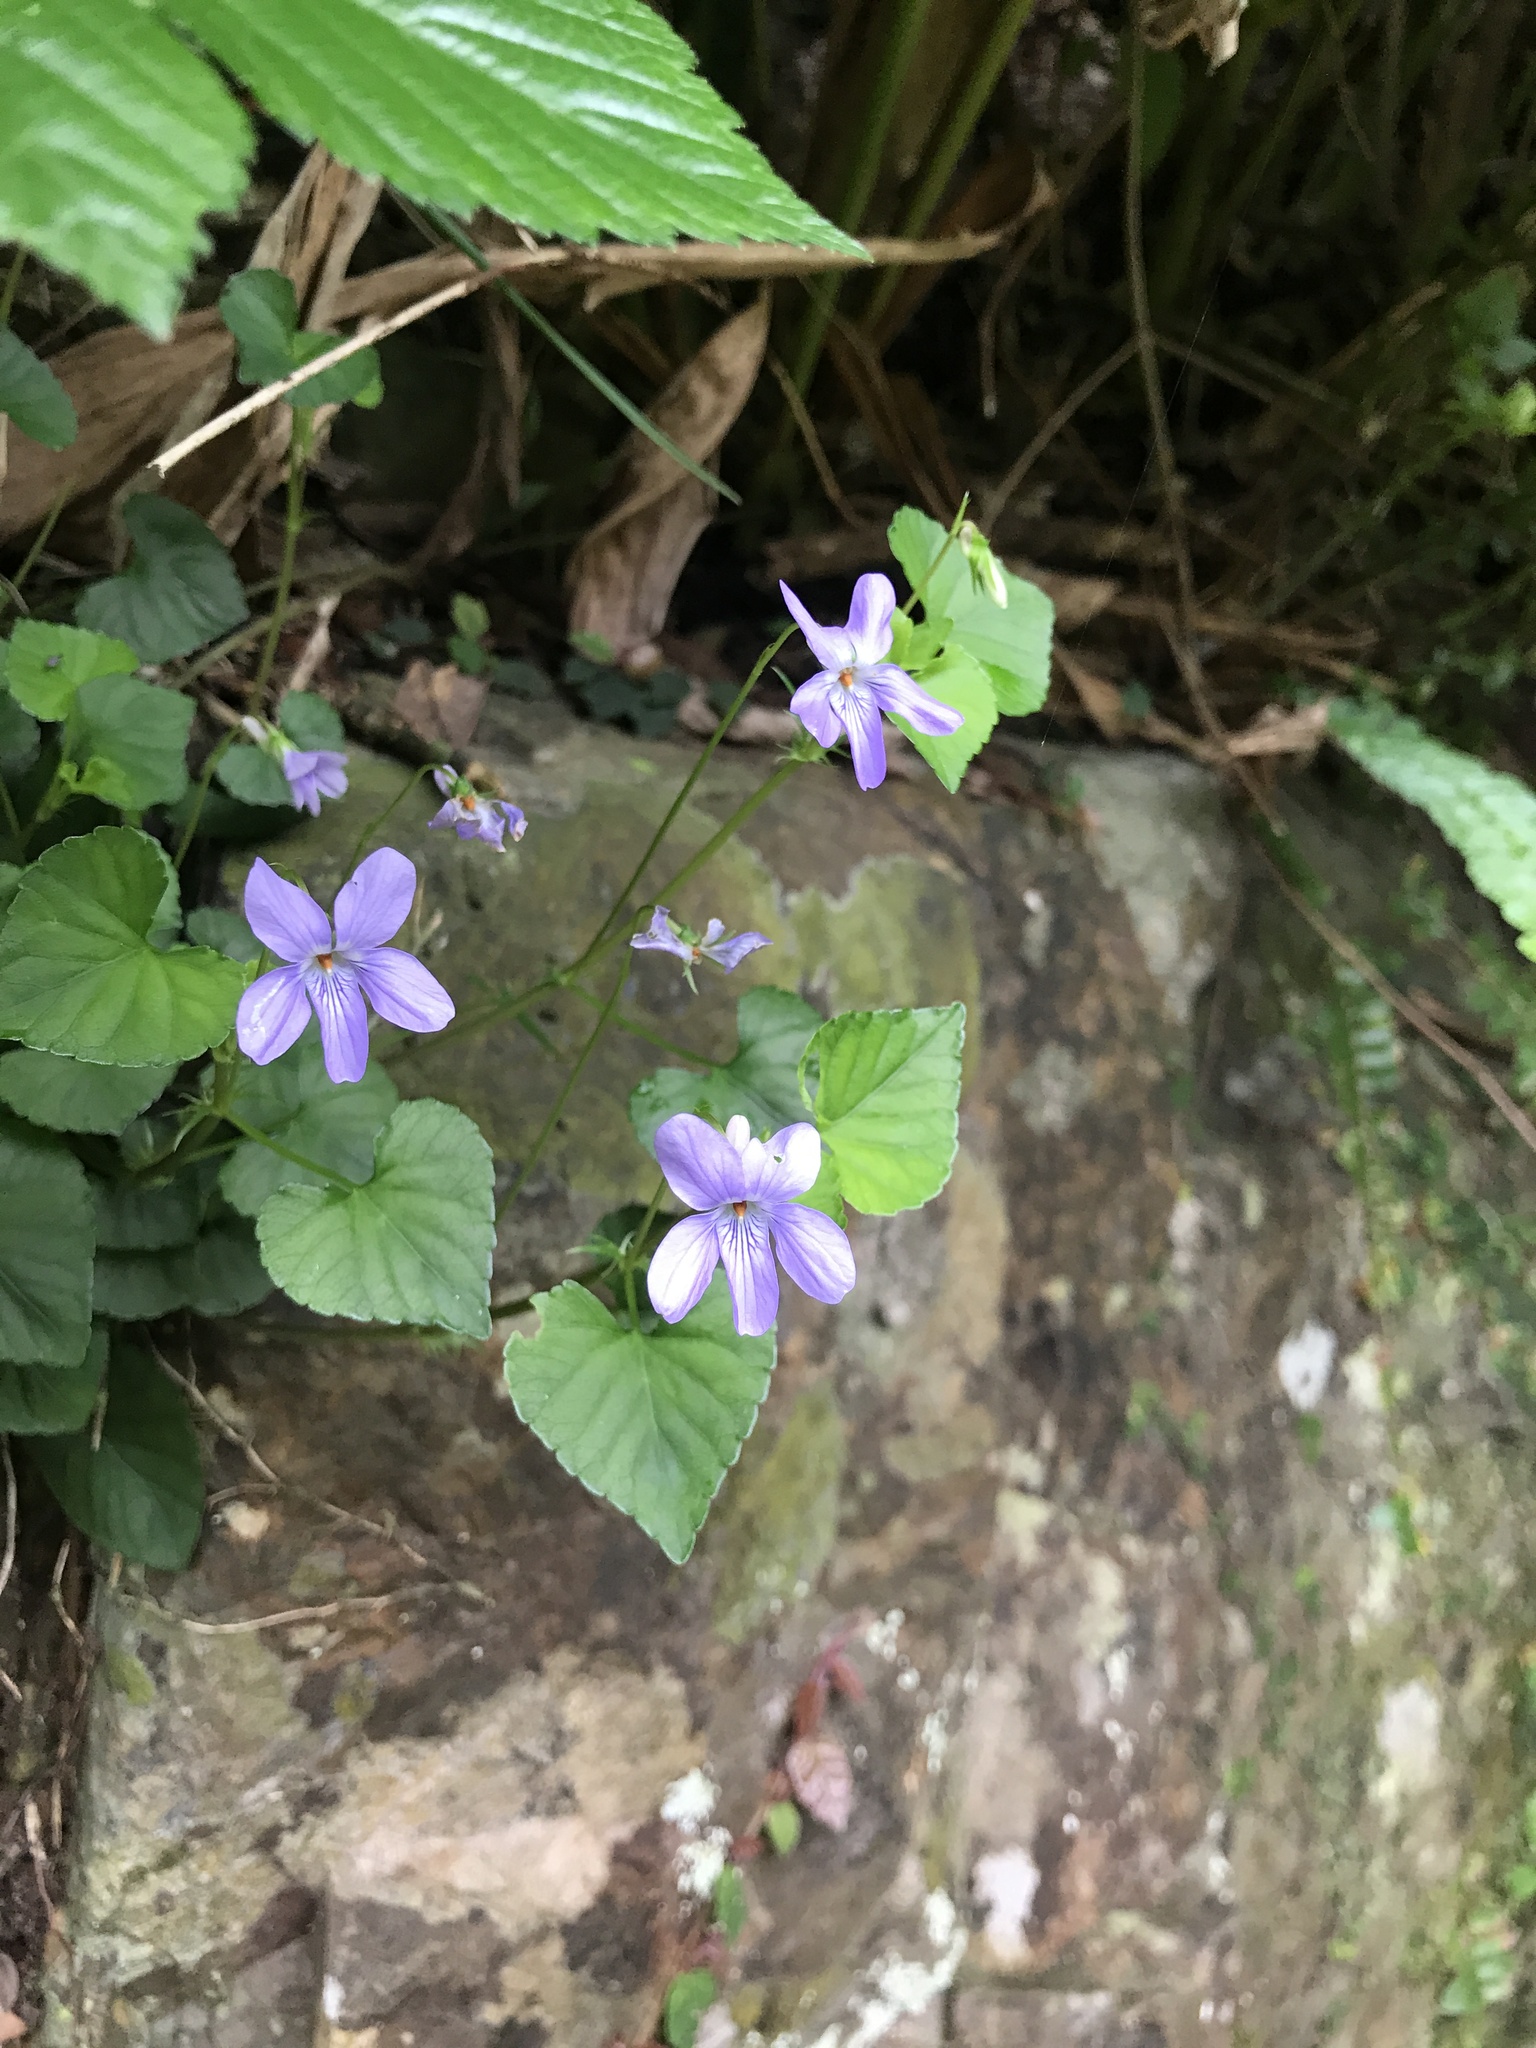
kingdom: Plantae
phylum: Tracheophyta
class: Magnoliopsida
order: Malpighiales
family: Violaceae
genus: Viola
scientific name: Viola grypoceras
